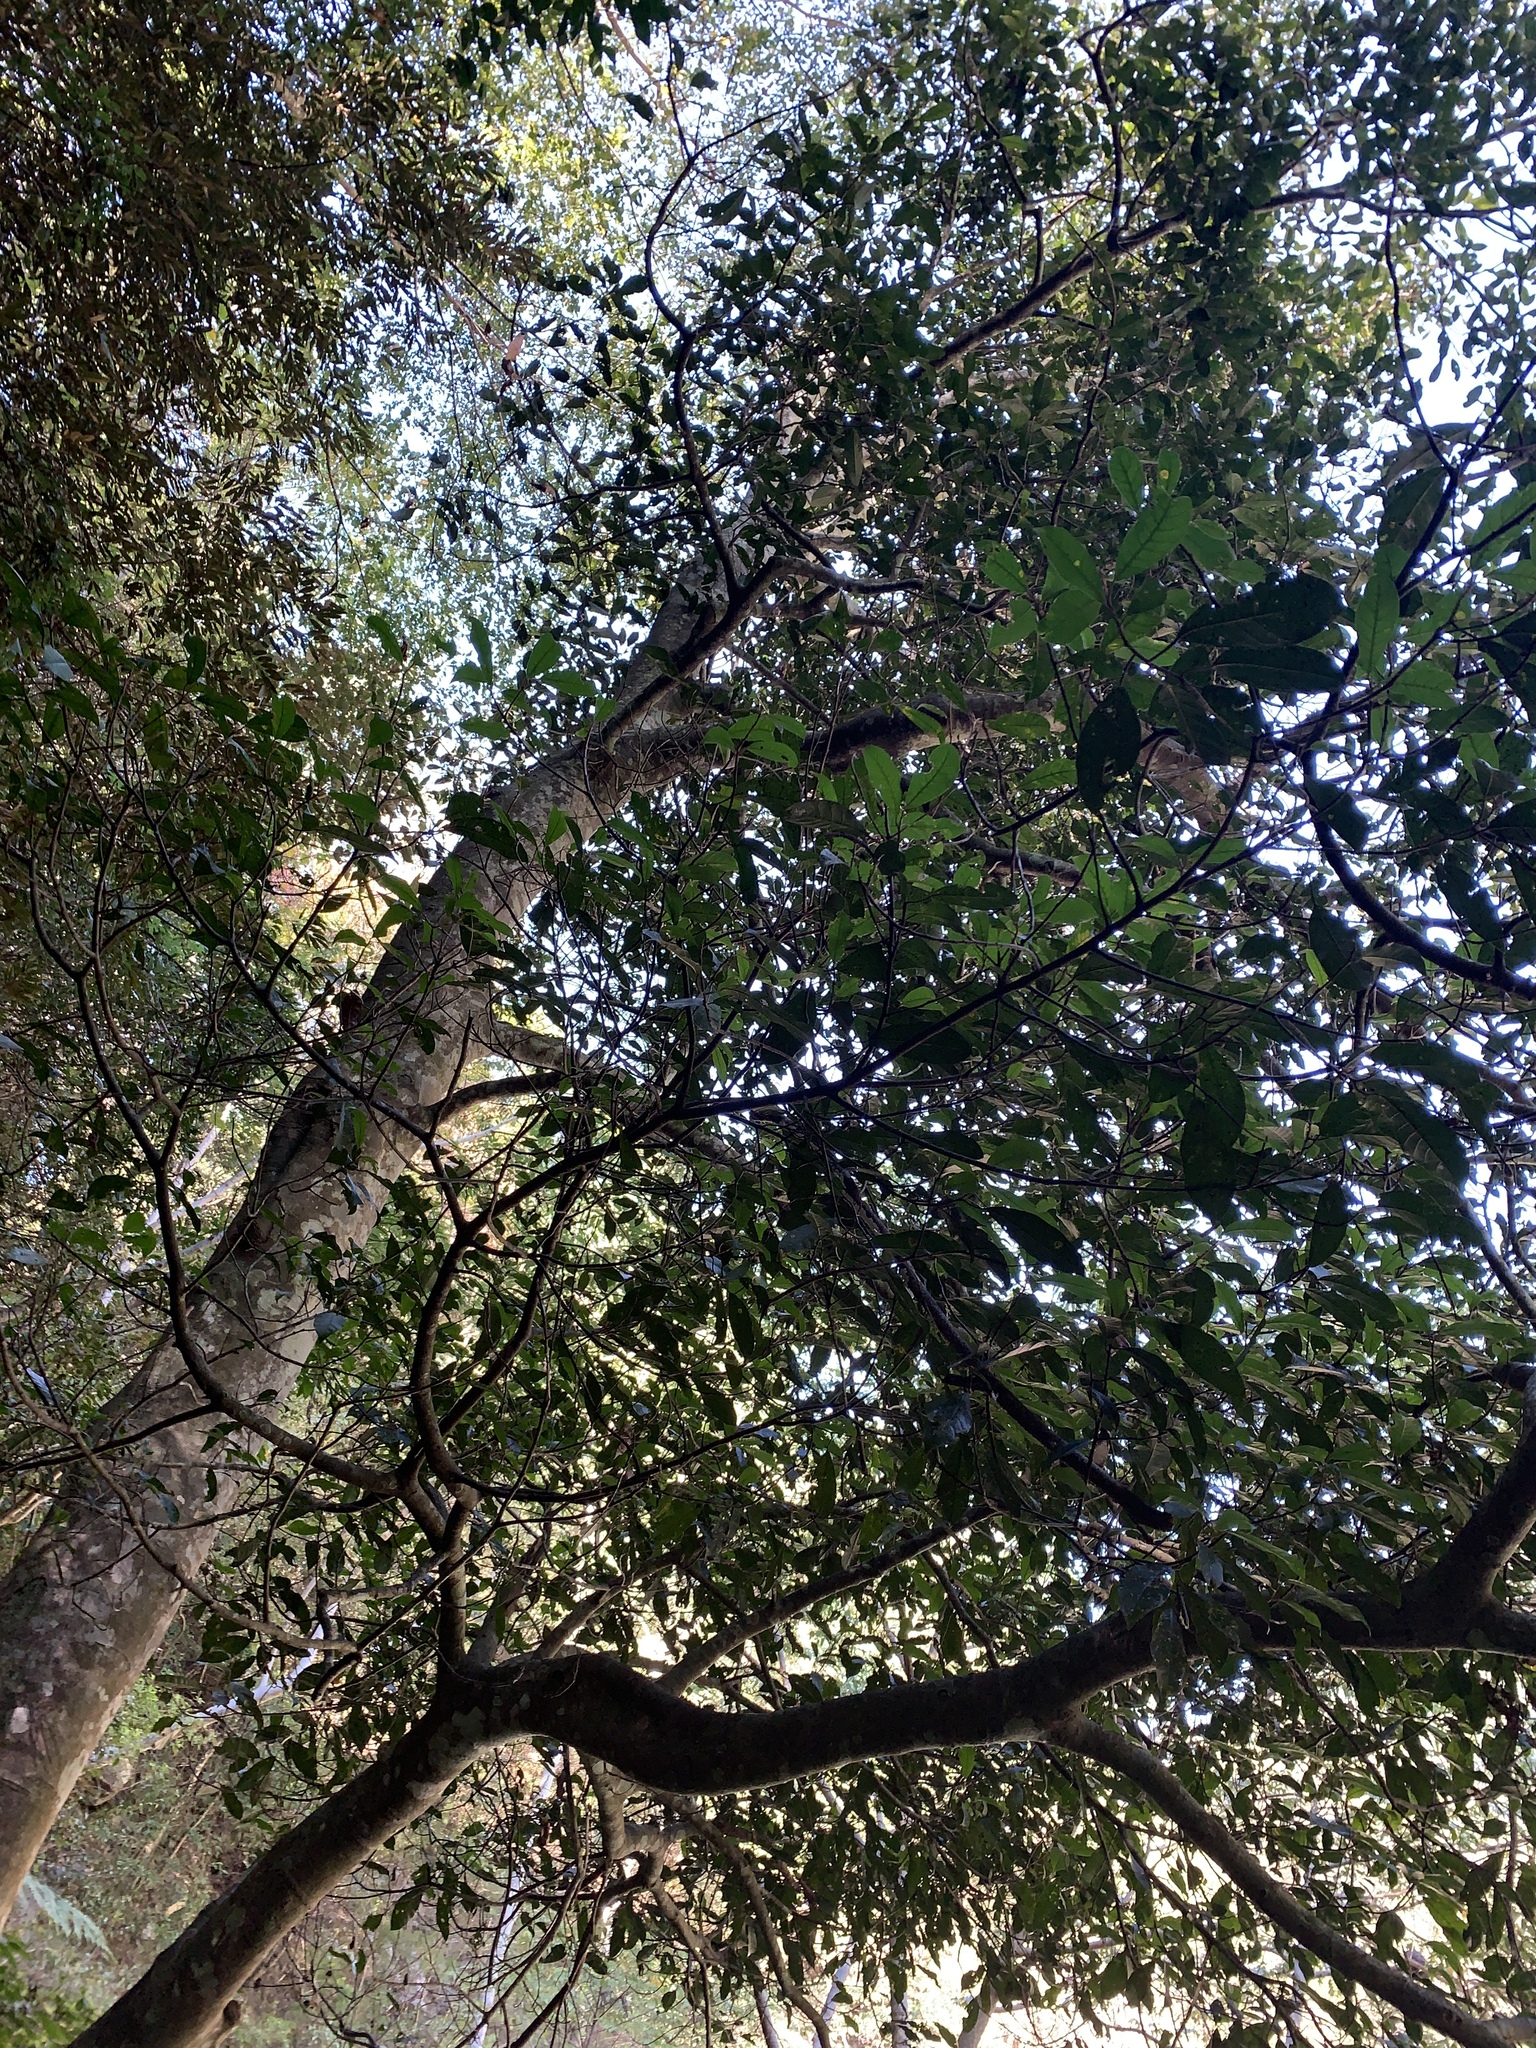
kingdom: Plantae
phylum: Tracheophyta
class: Magnoliopsida
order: Rosales
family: Moraceae
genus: Ficus
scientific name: Ficus nervosa
